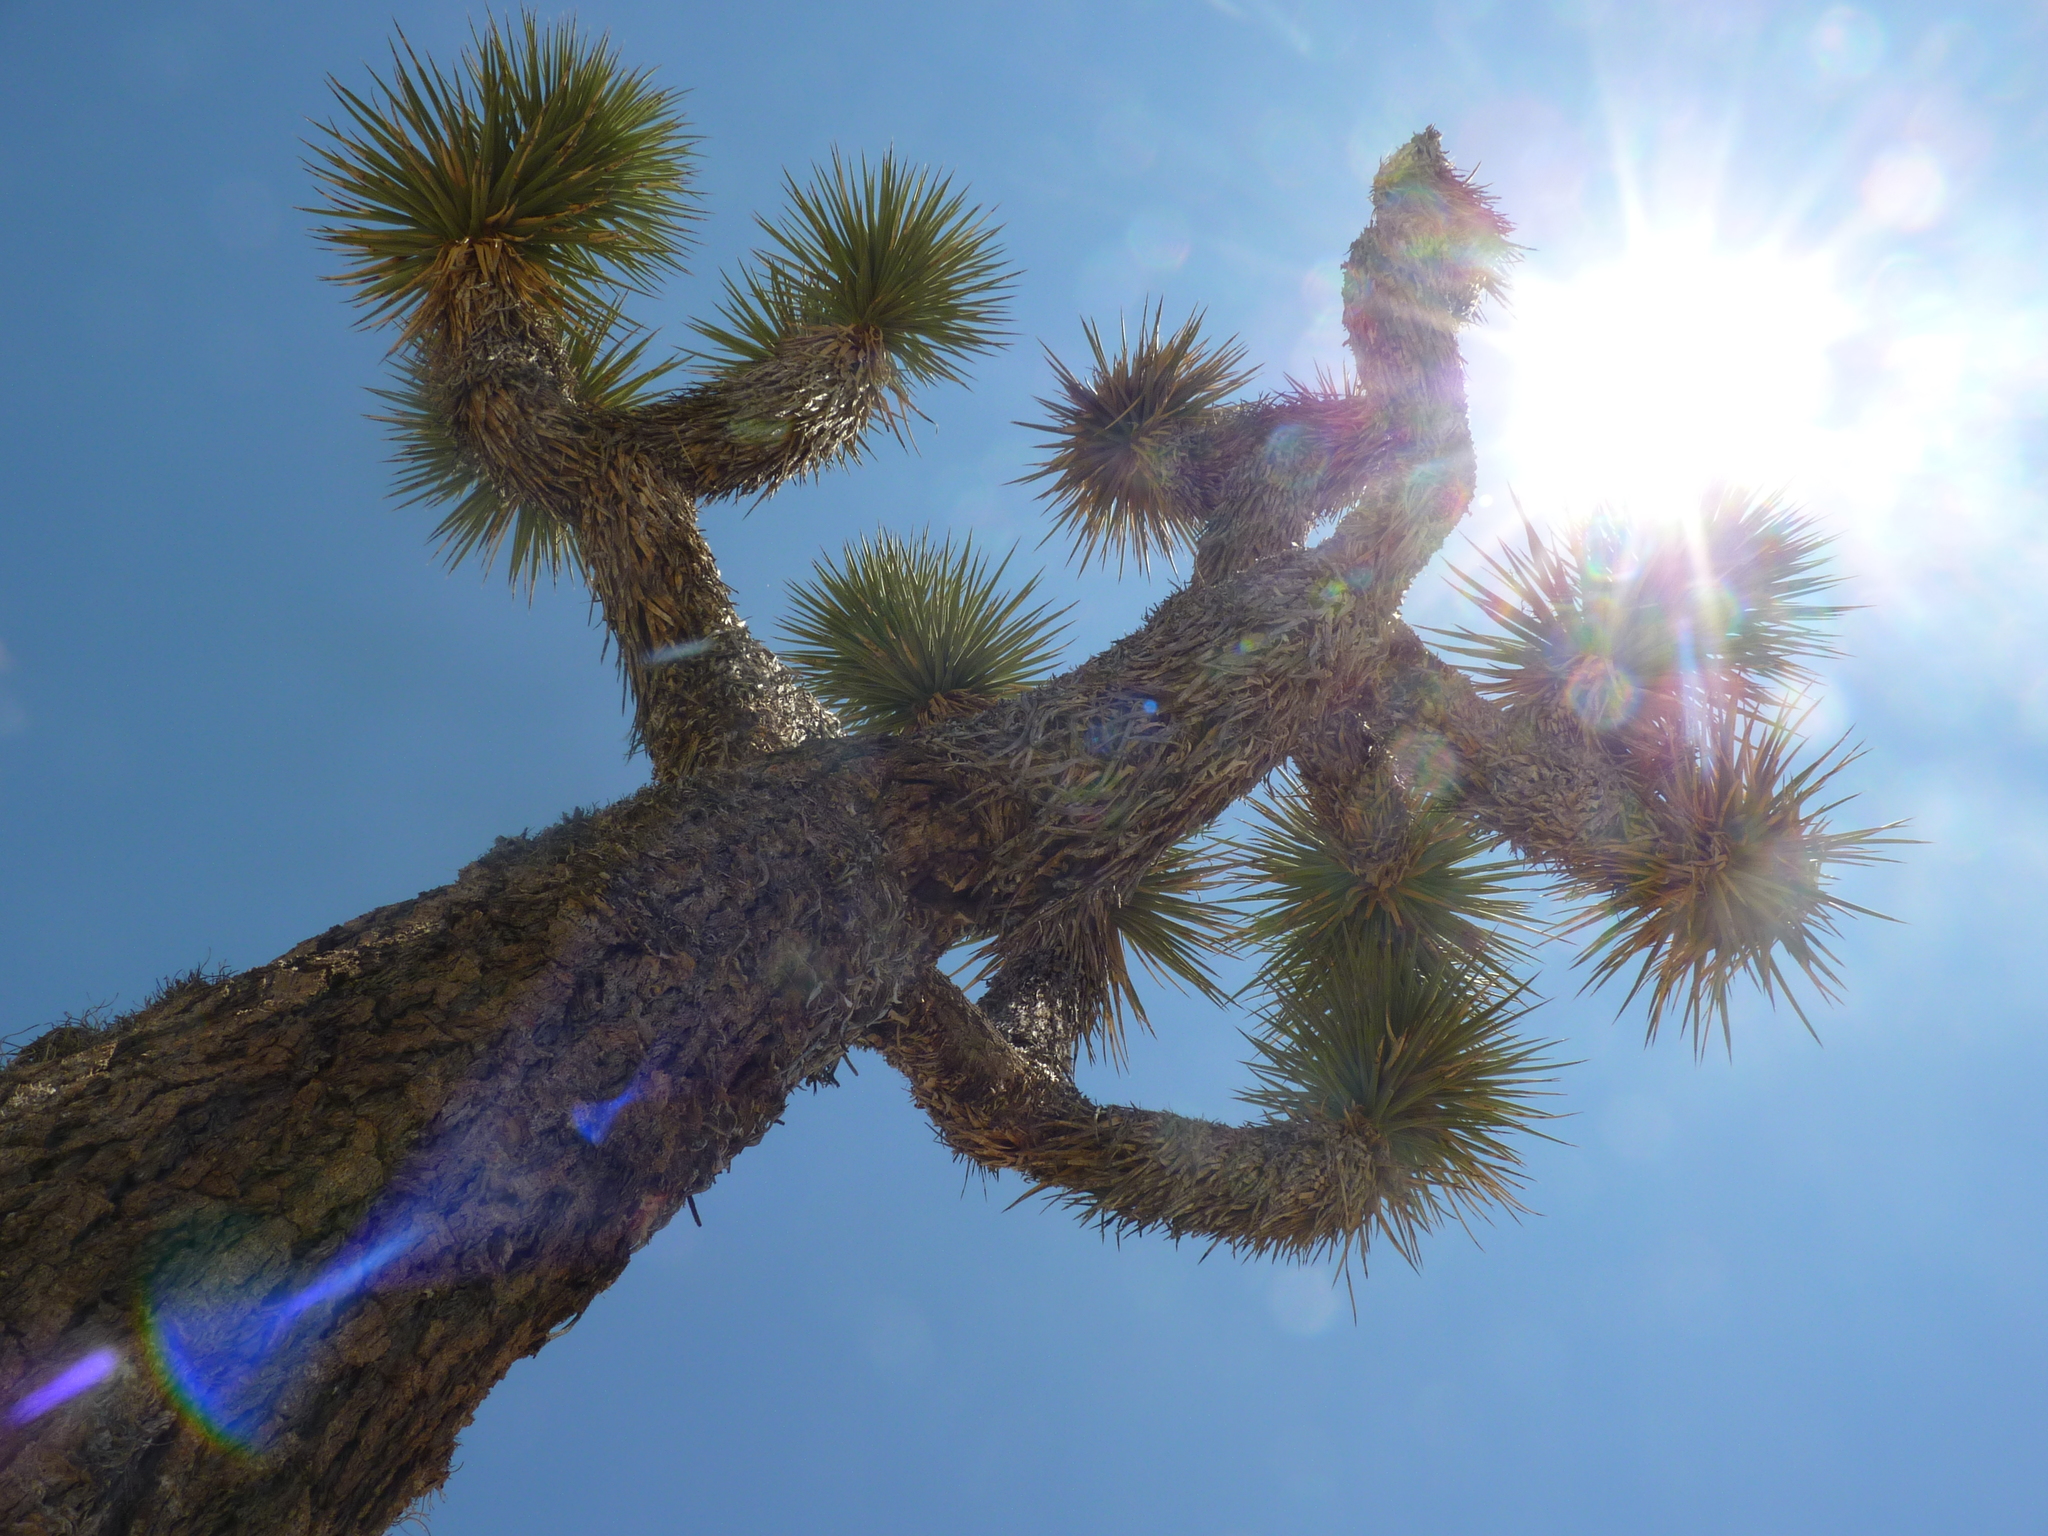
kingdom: Plantae
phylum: Tracheophyta
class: Liliopsida
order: Asparagales
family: Asparagaceae
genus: Yucca
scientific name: Yucca brevifolia
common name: Joshua tree
